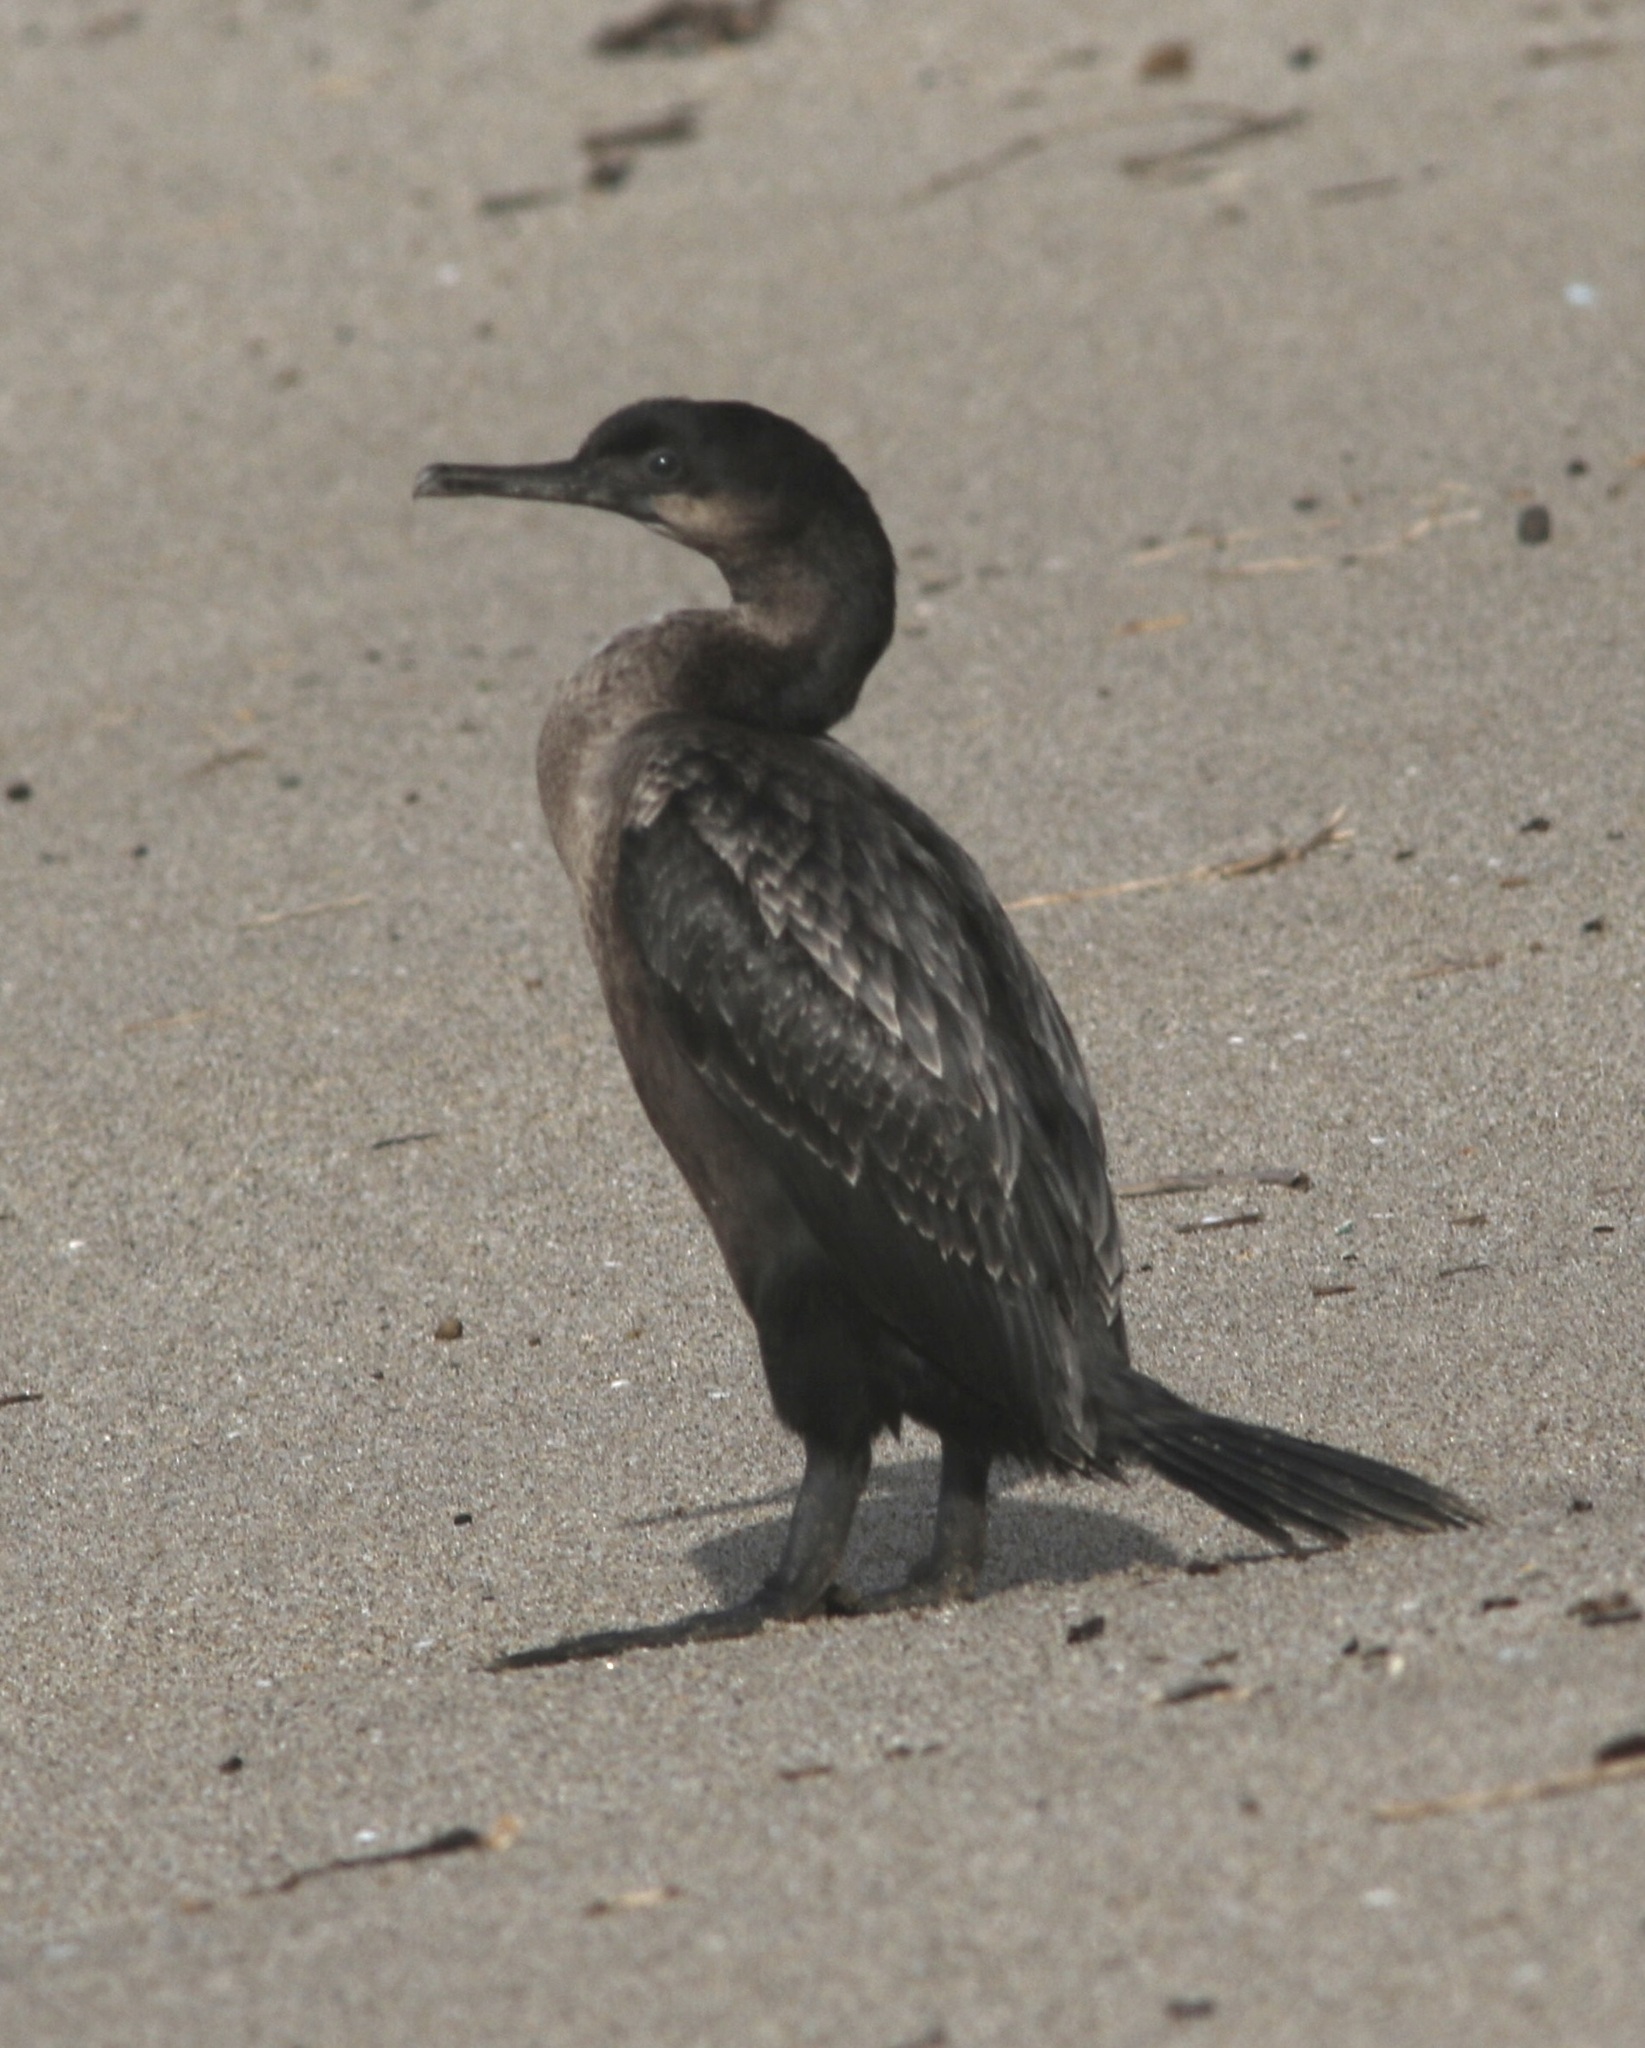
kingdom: Animalia
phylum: Chordata
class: Aves
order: Suliformes
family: Phalacrocoracidae
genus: Urile
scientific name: Urile penicillatus
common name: Brandt's cormorant
